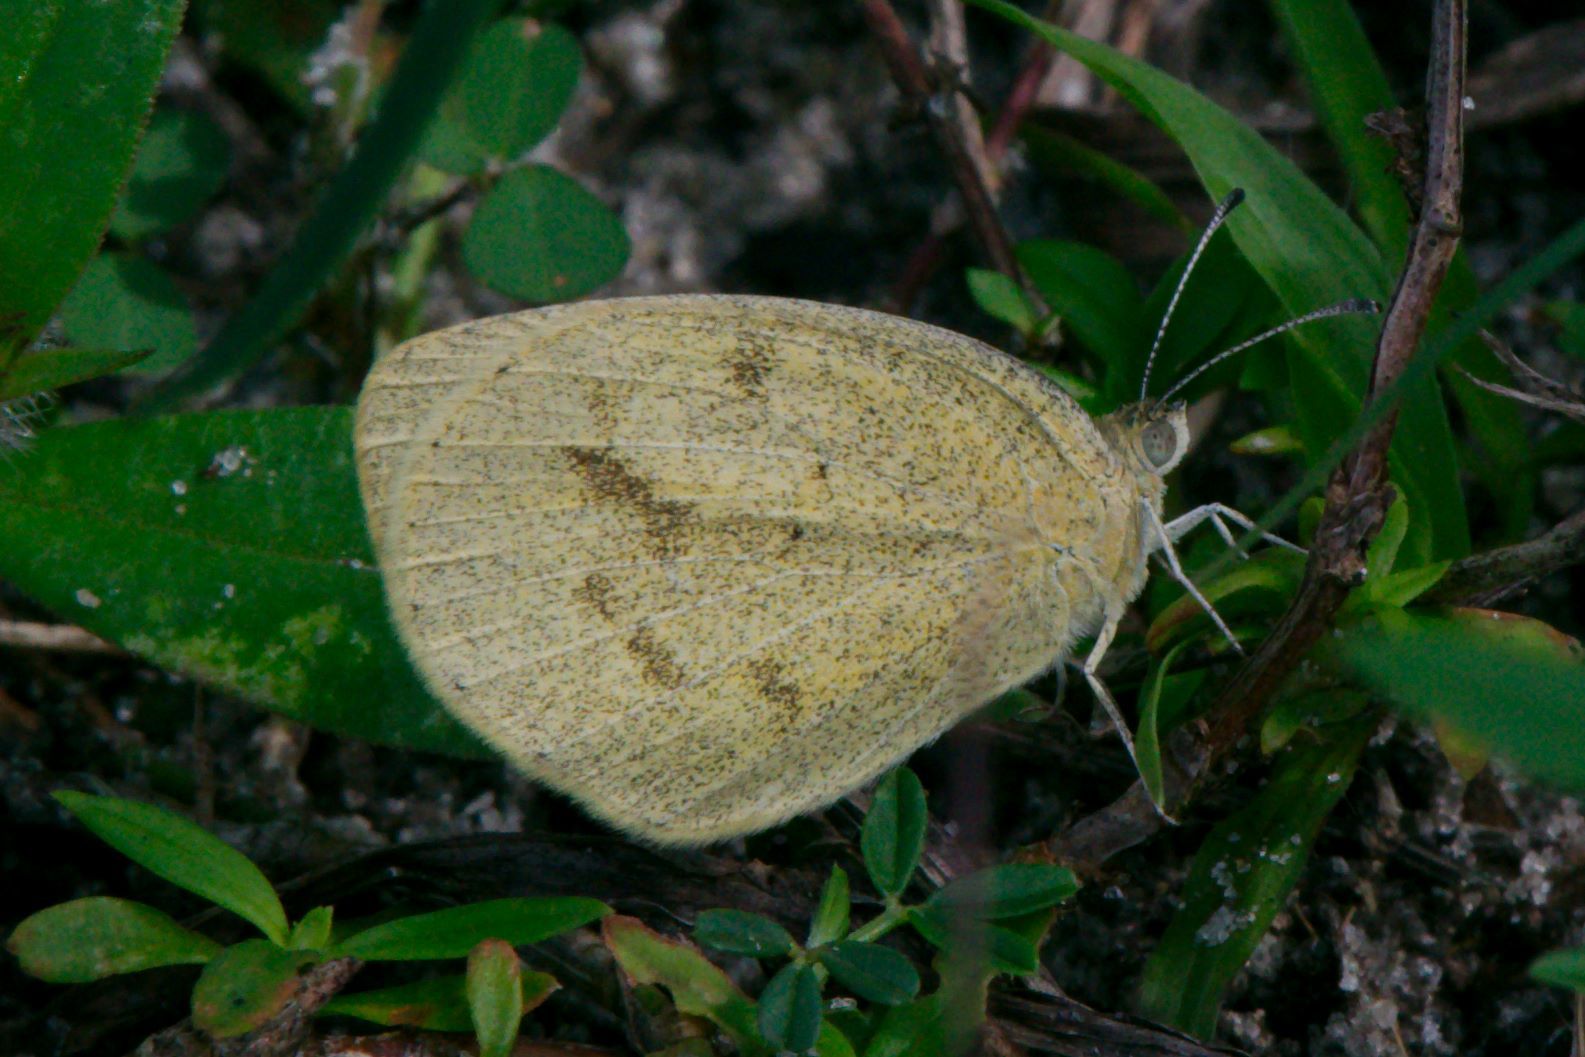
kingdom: Animalia
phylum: Arthropoda
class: Insecta
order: Lepidoptera
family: Pieridae
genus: Eurema
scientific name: Eurema daira
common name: Barred sulphur
